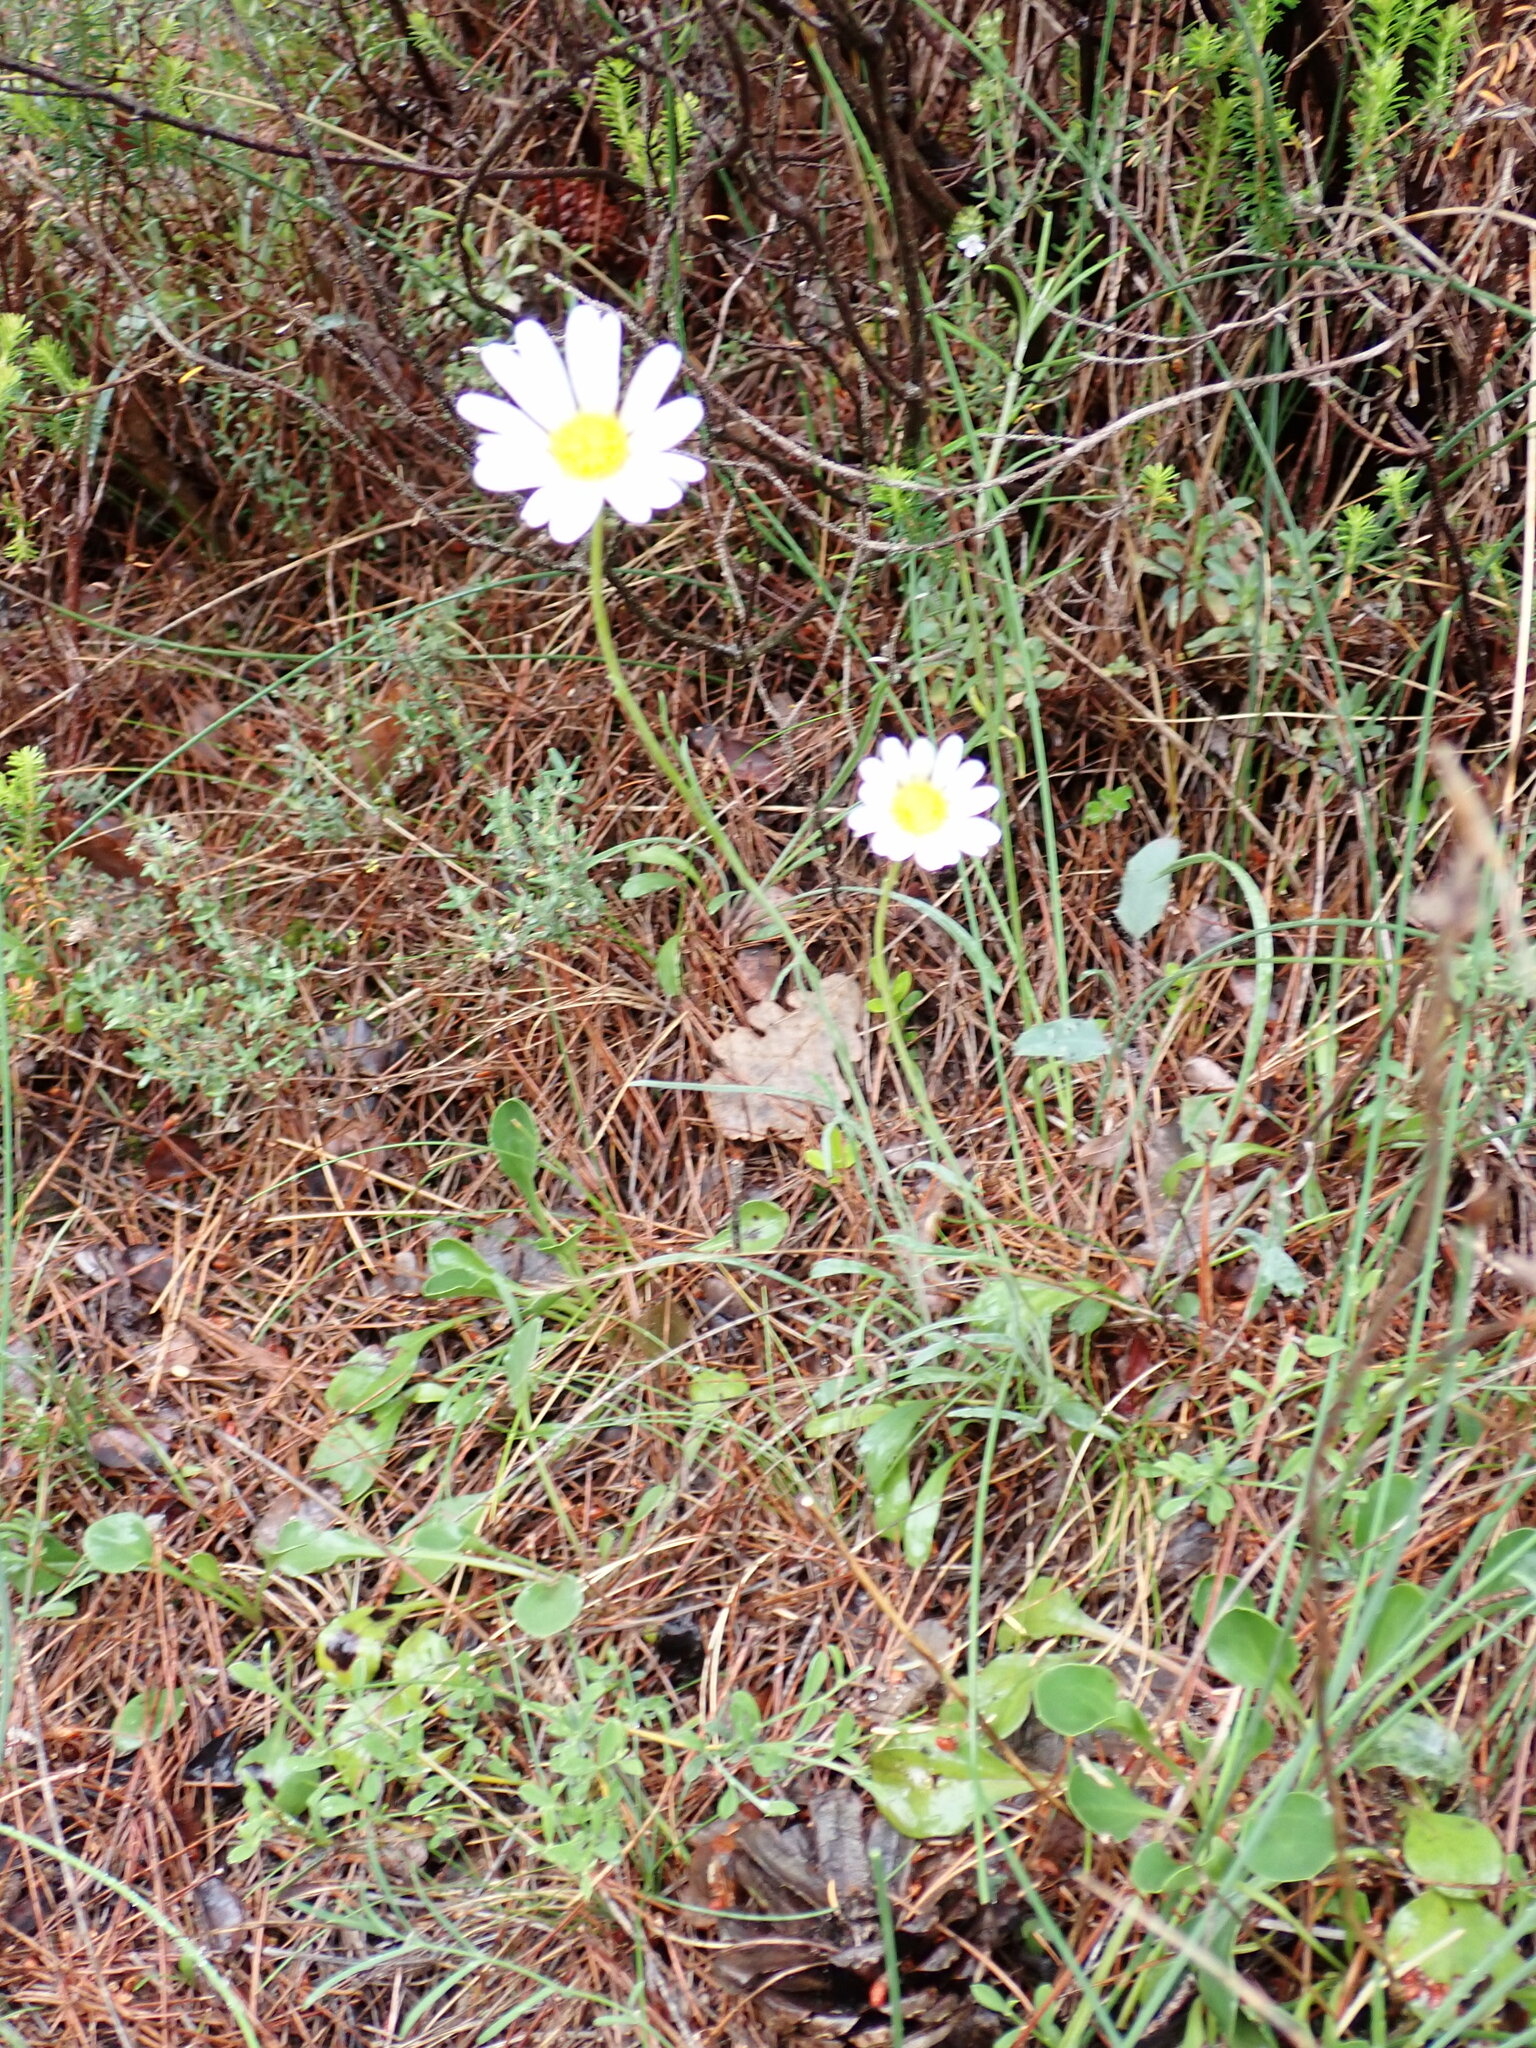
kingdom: Plantae
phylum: Tracheophyta
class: Magnoliopsida
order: Asterales
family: Asteraceae
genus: Leucanthemum
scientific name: Leucanthemum graminifolium
